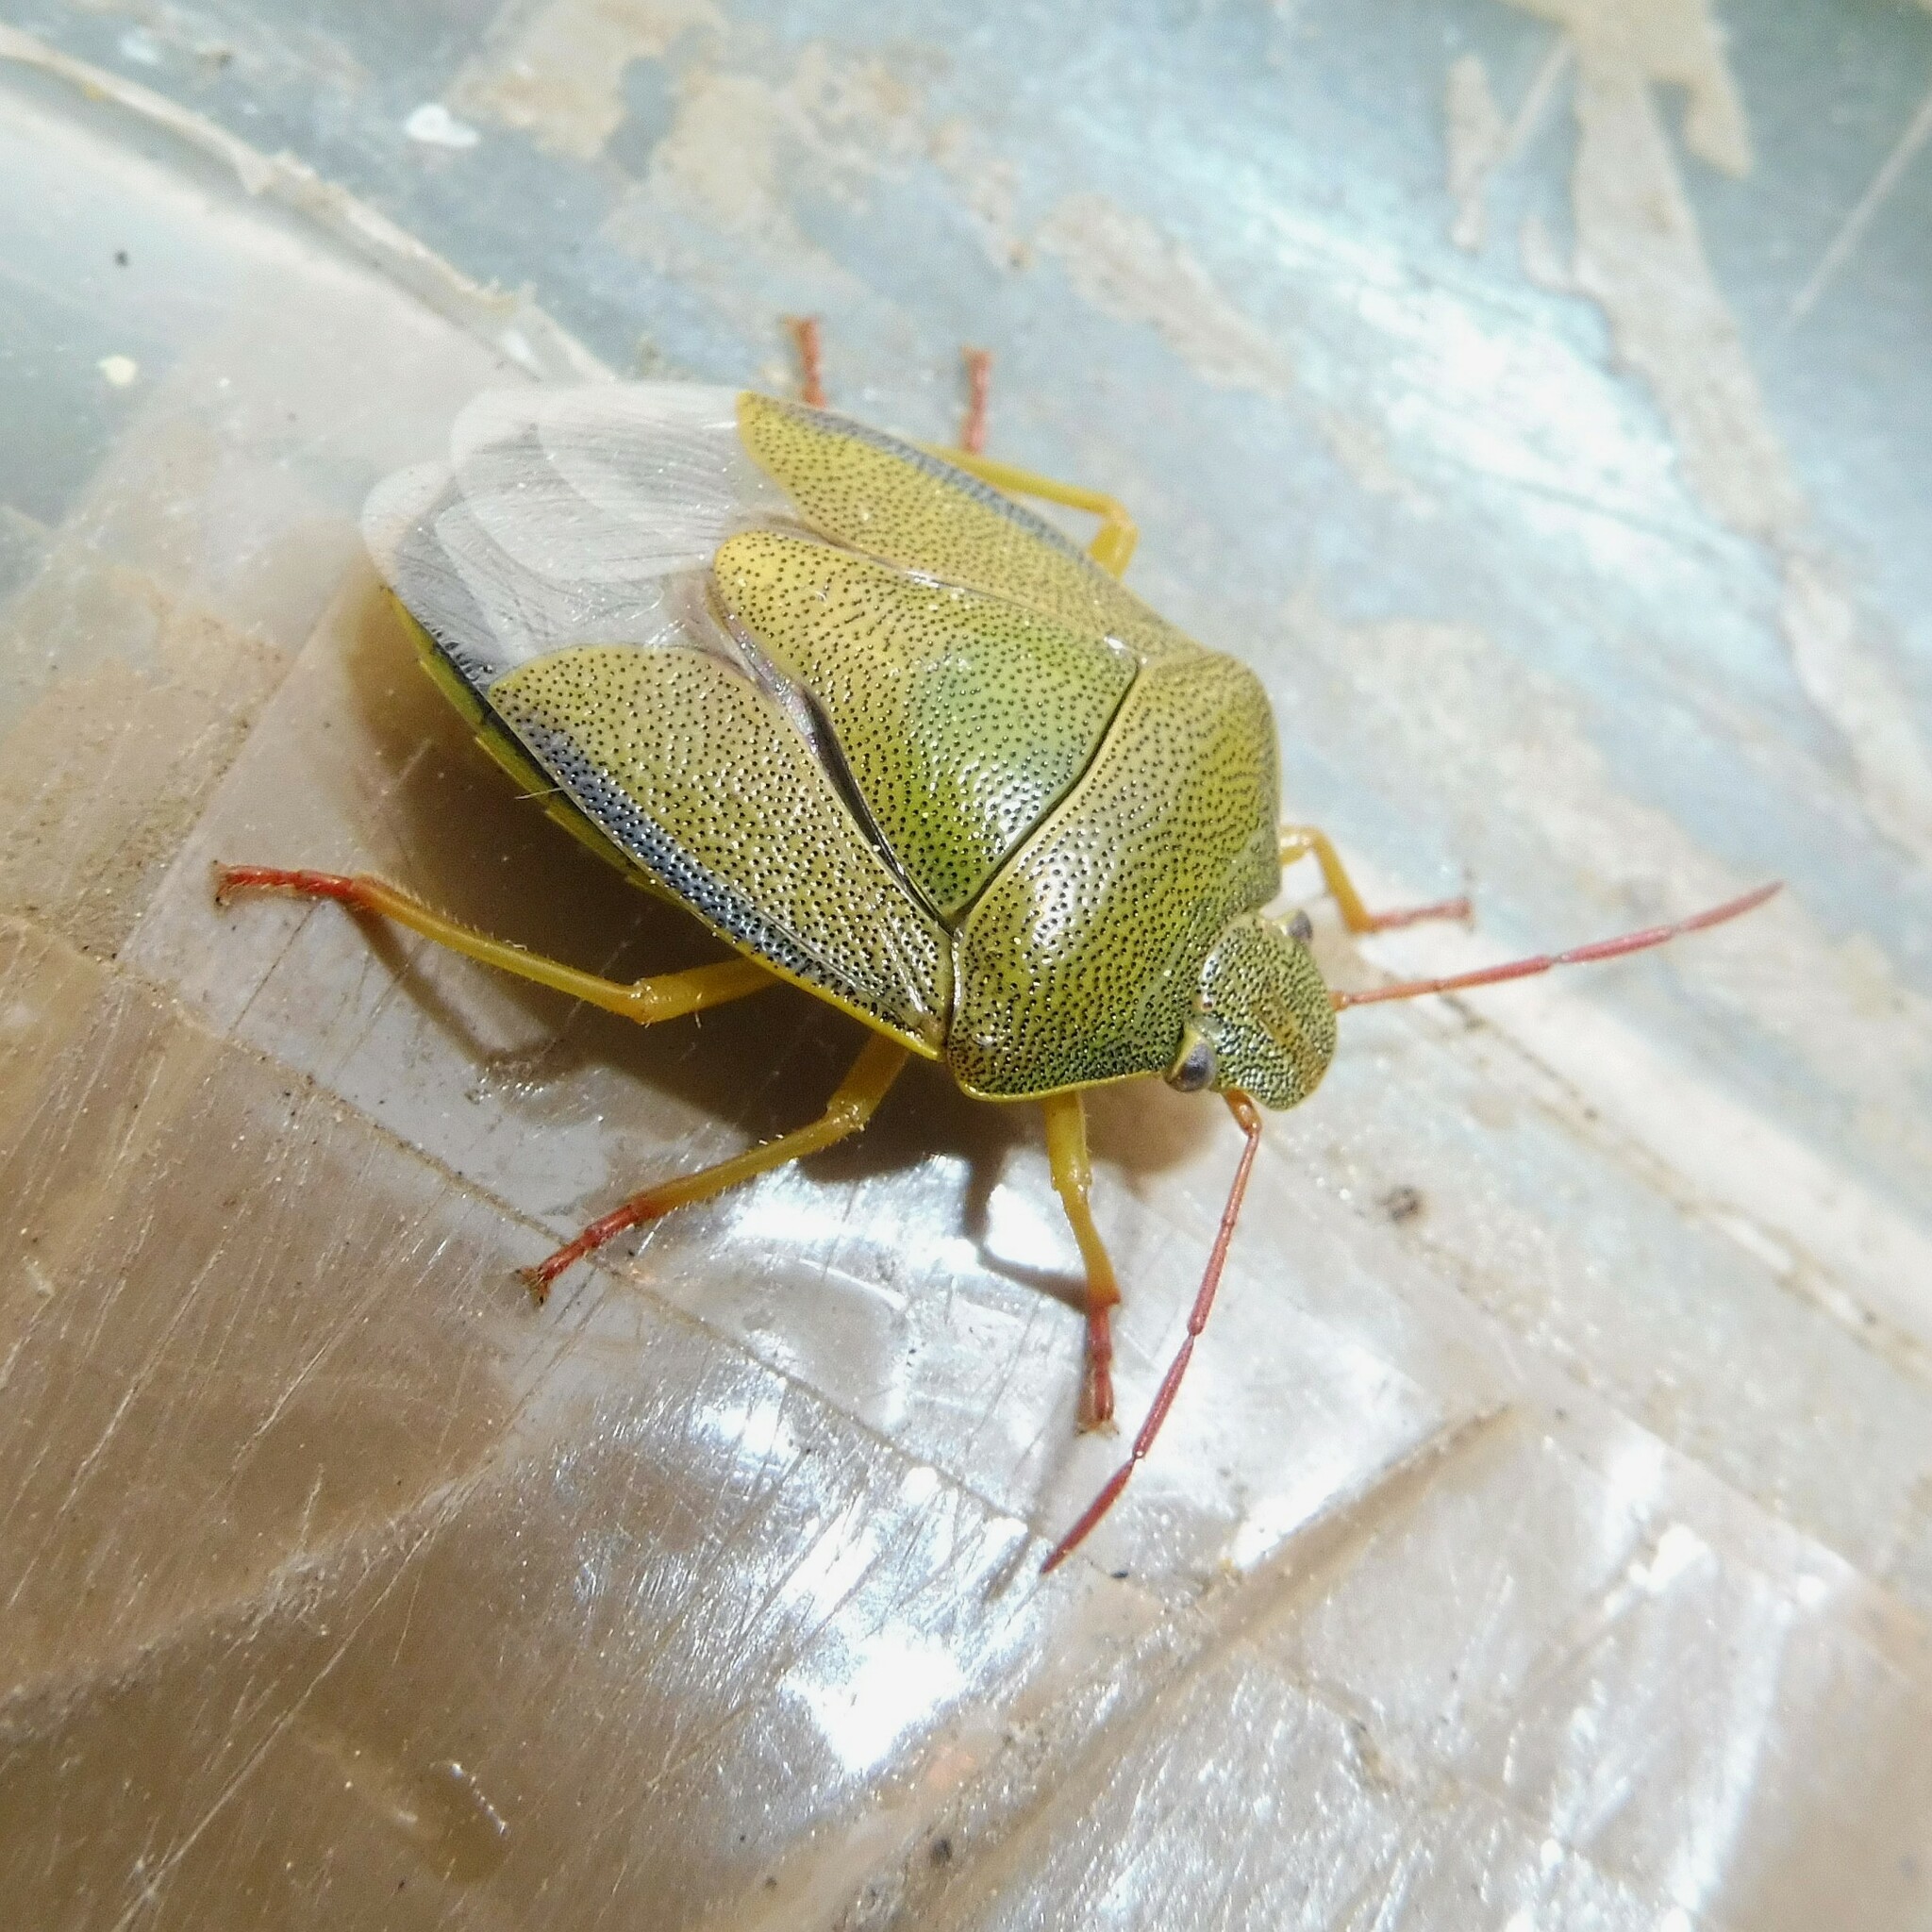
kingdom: Animalia
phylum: Arthropoda
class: Insecta
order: Hemiptera
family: Pentatomidae
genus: Piezodorus
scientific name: Piezodorus lituratus
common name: Stink bug
